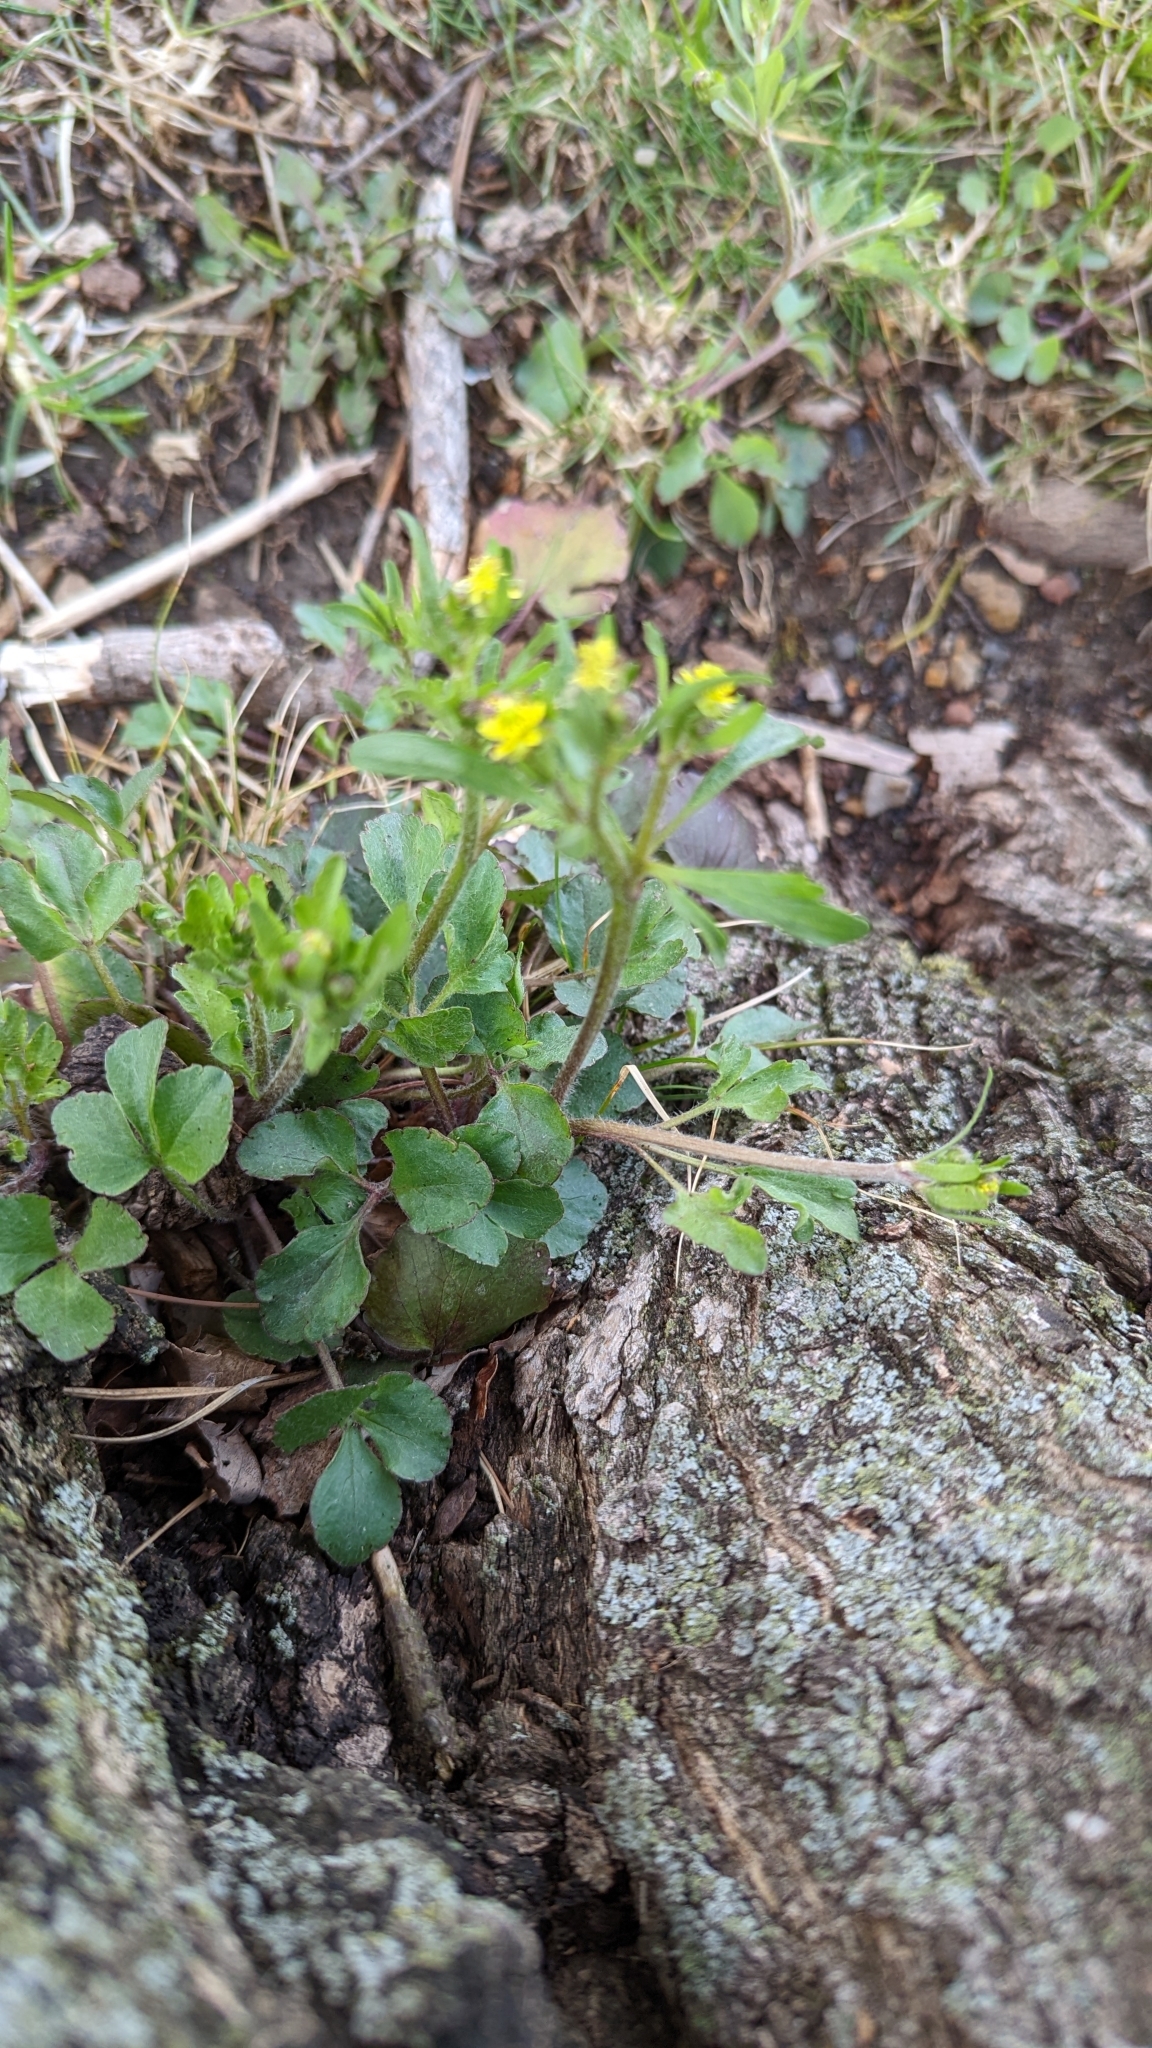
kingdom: Plantae
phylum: Tracheophyta
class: Magnoliopsida
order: Ranunculales
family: Ranunculaceae
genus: Ranunculus
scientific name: Ranunculus micranthus
